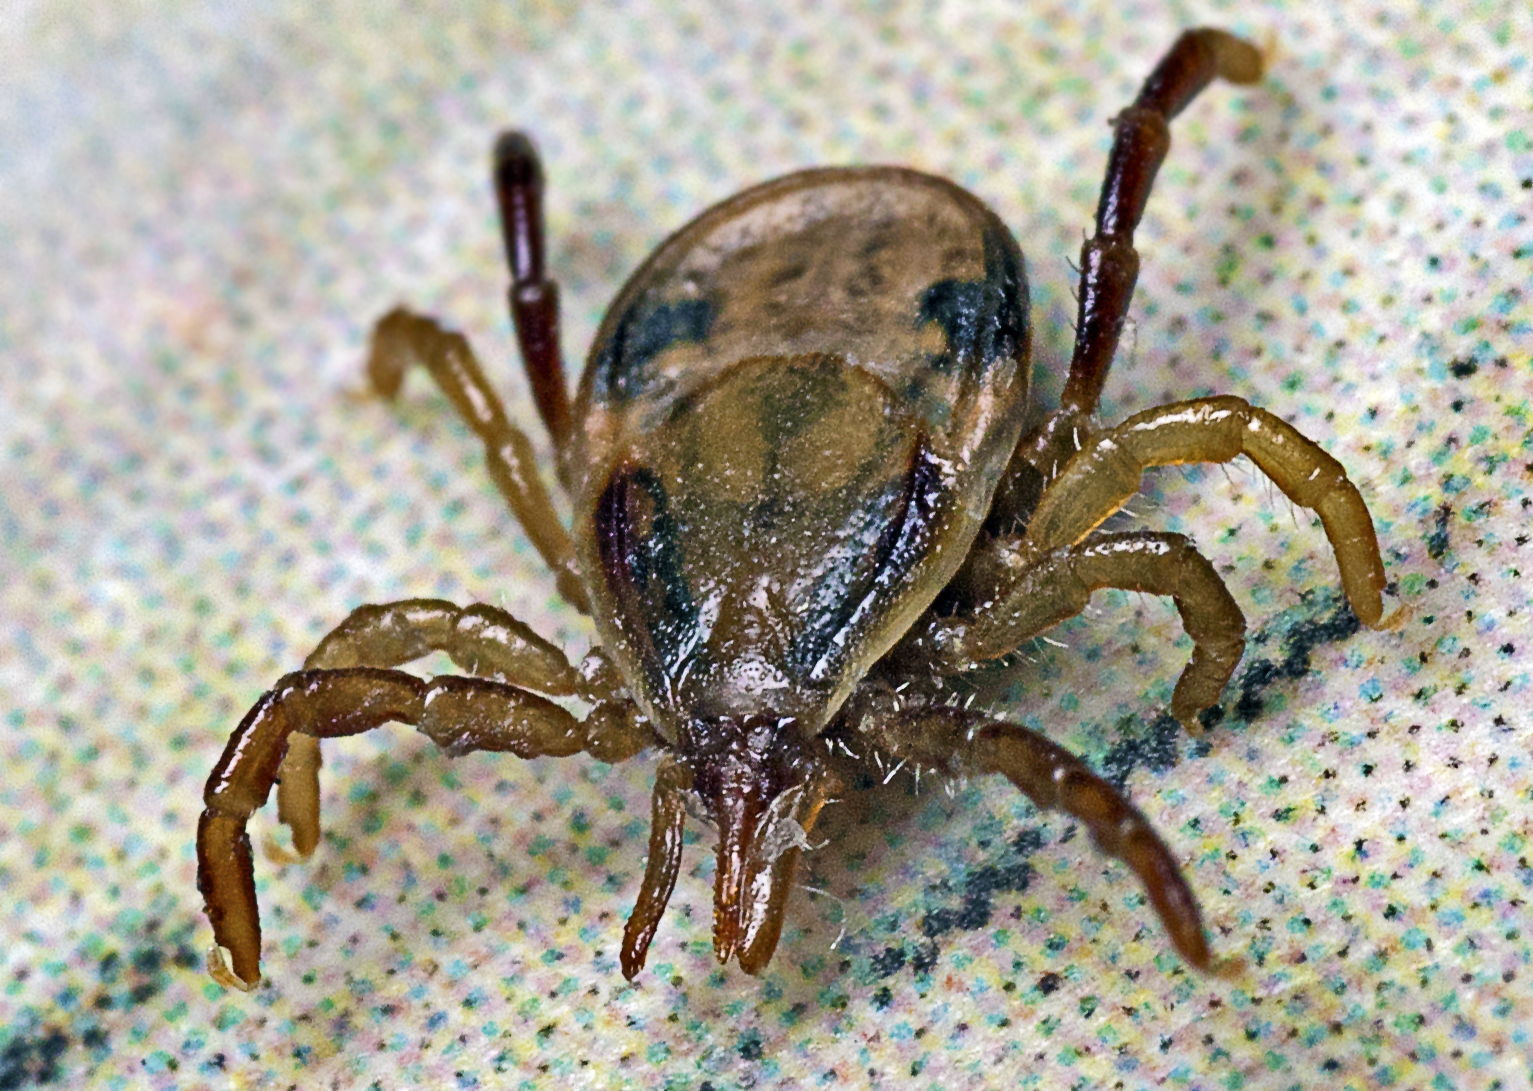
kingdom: Animalia
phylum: Arthropoda
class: Arachnida
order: Ixodida
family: Ixodidae
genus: Ixodes
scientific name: Ixodes holocyclus
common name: Australian paralysis tick
